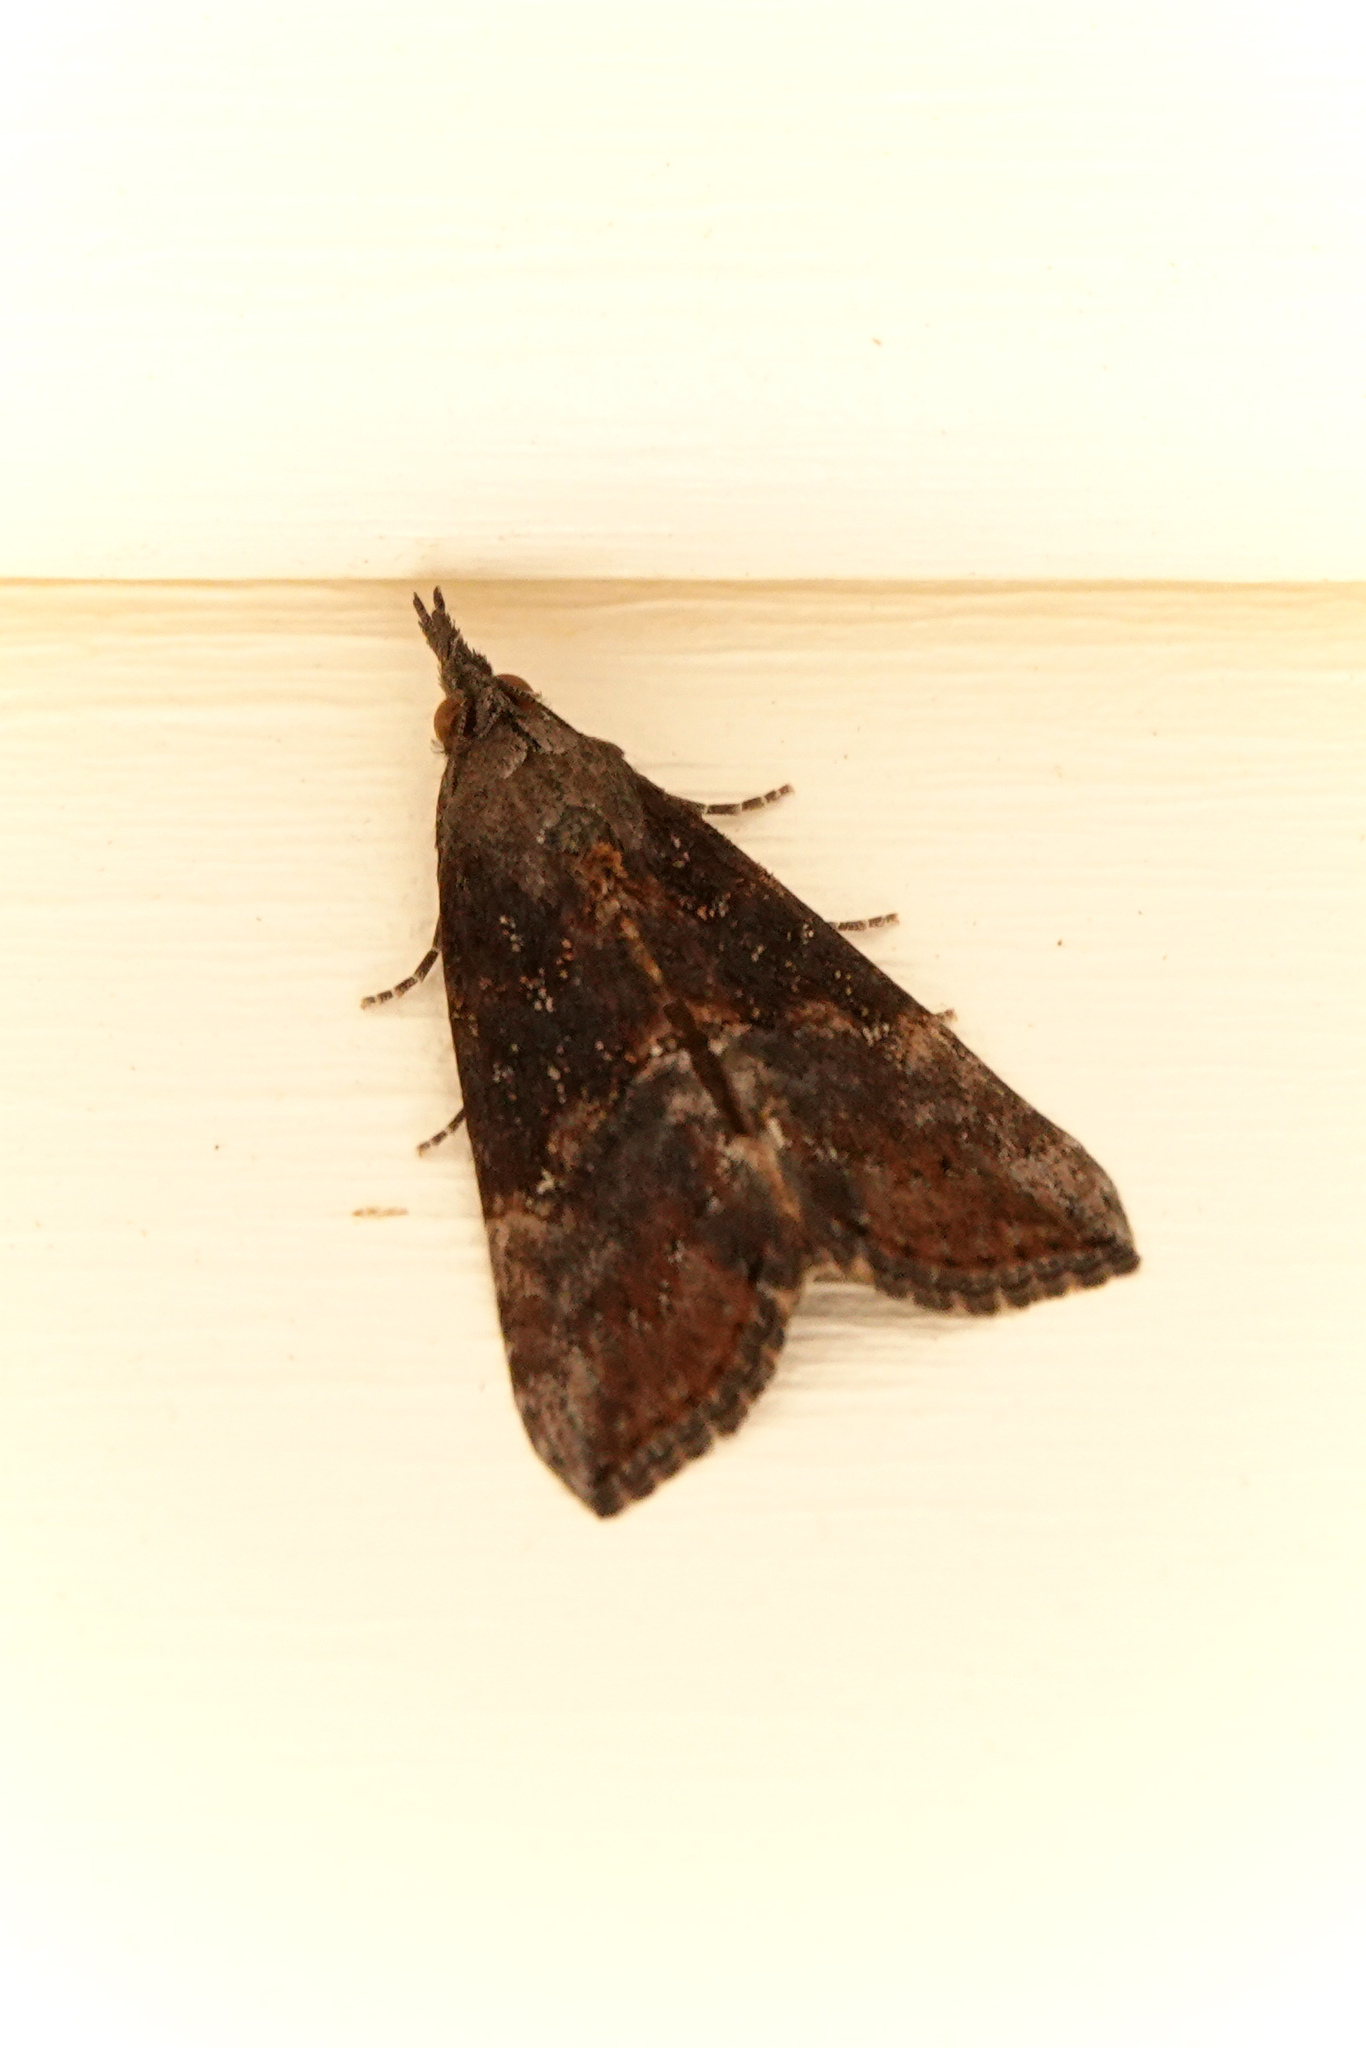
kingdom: Animalia
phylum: Arthropoda
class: Insecta
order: Lepidoptera
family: Erebidae
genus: Hypena
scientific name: Hypena scabra
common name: Green cloverworm
